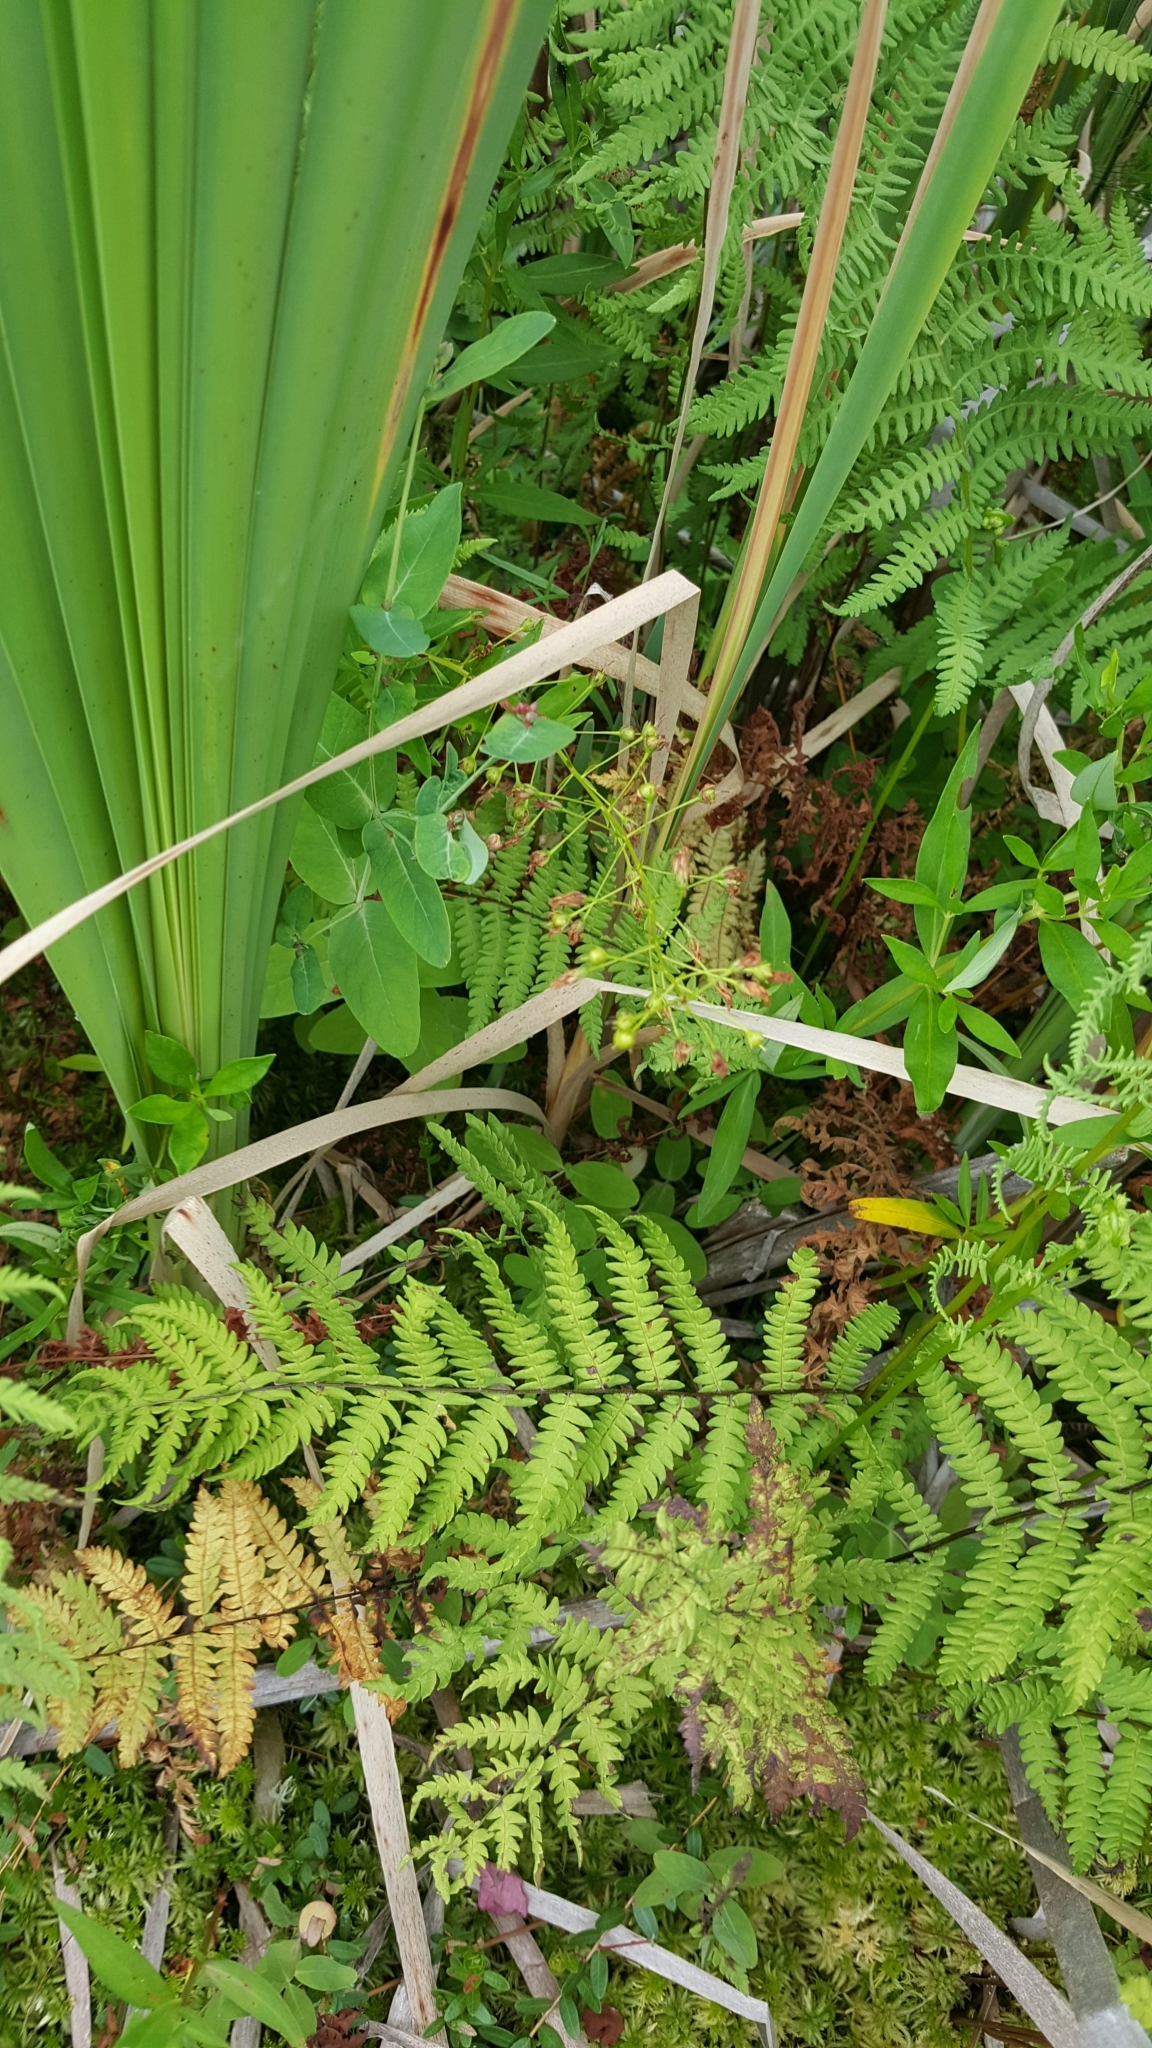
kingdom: Plantae
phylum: Tracheophyta
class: Magnoliopsida
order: Ericales
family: Primulaceae
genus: Lysimachia
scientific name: Lysimachia terrestris
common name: Lake loosestrife
